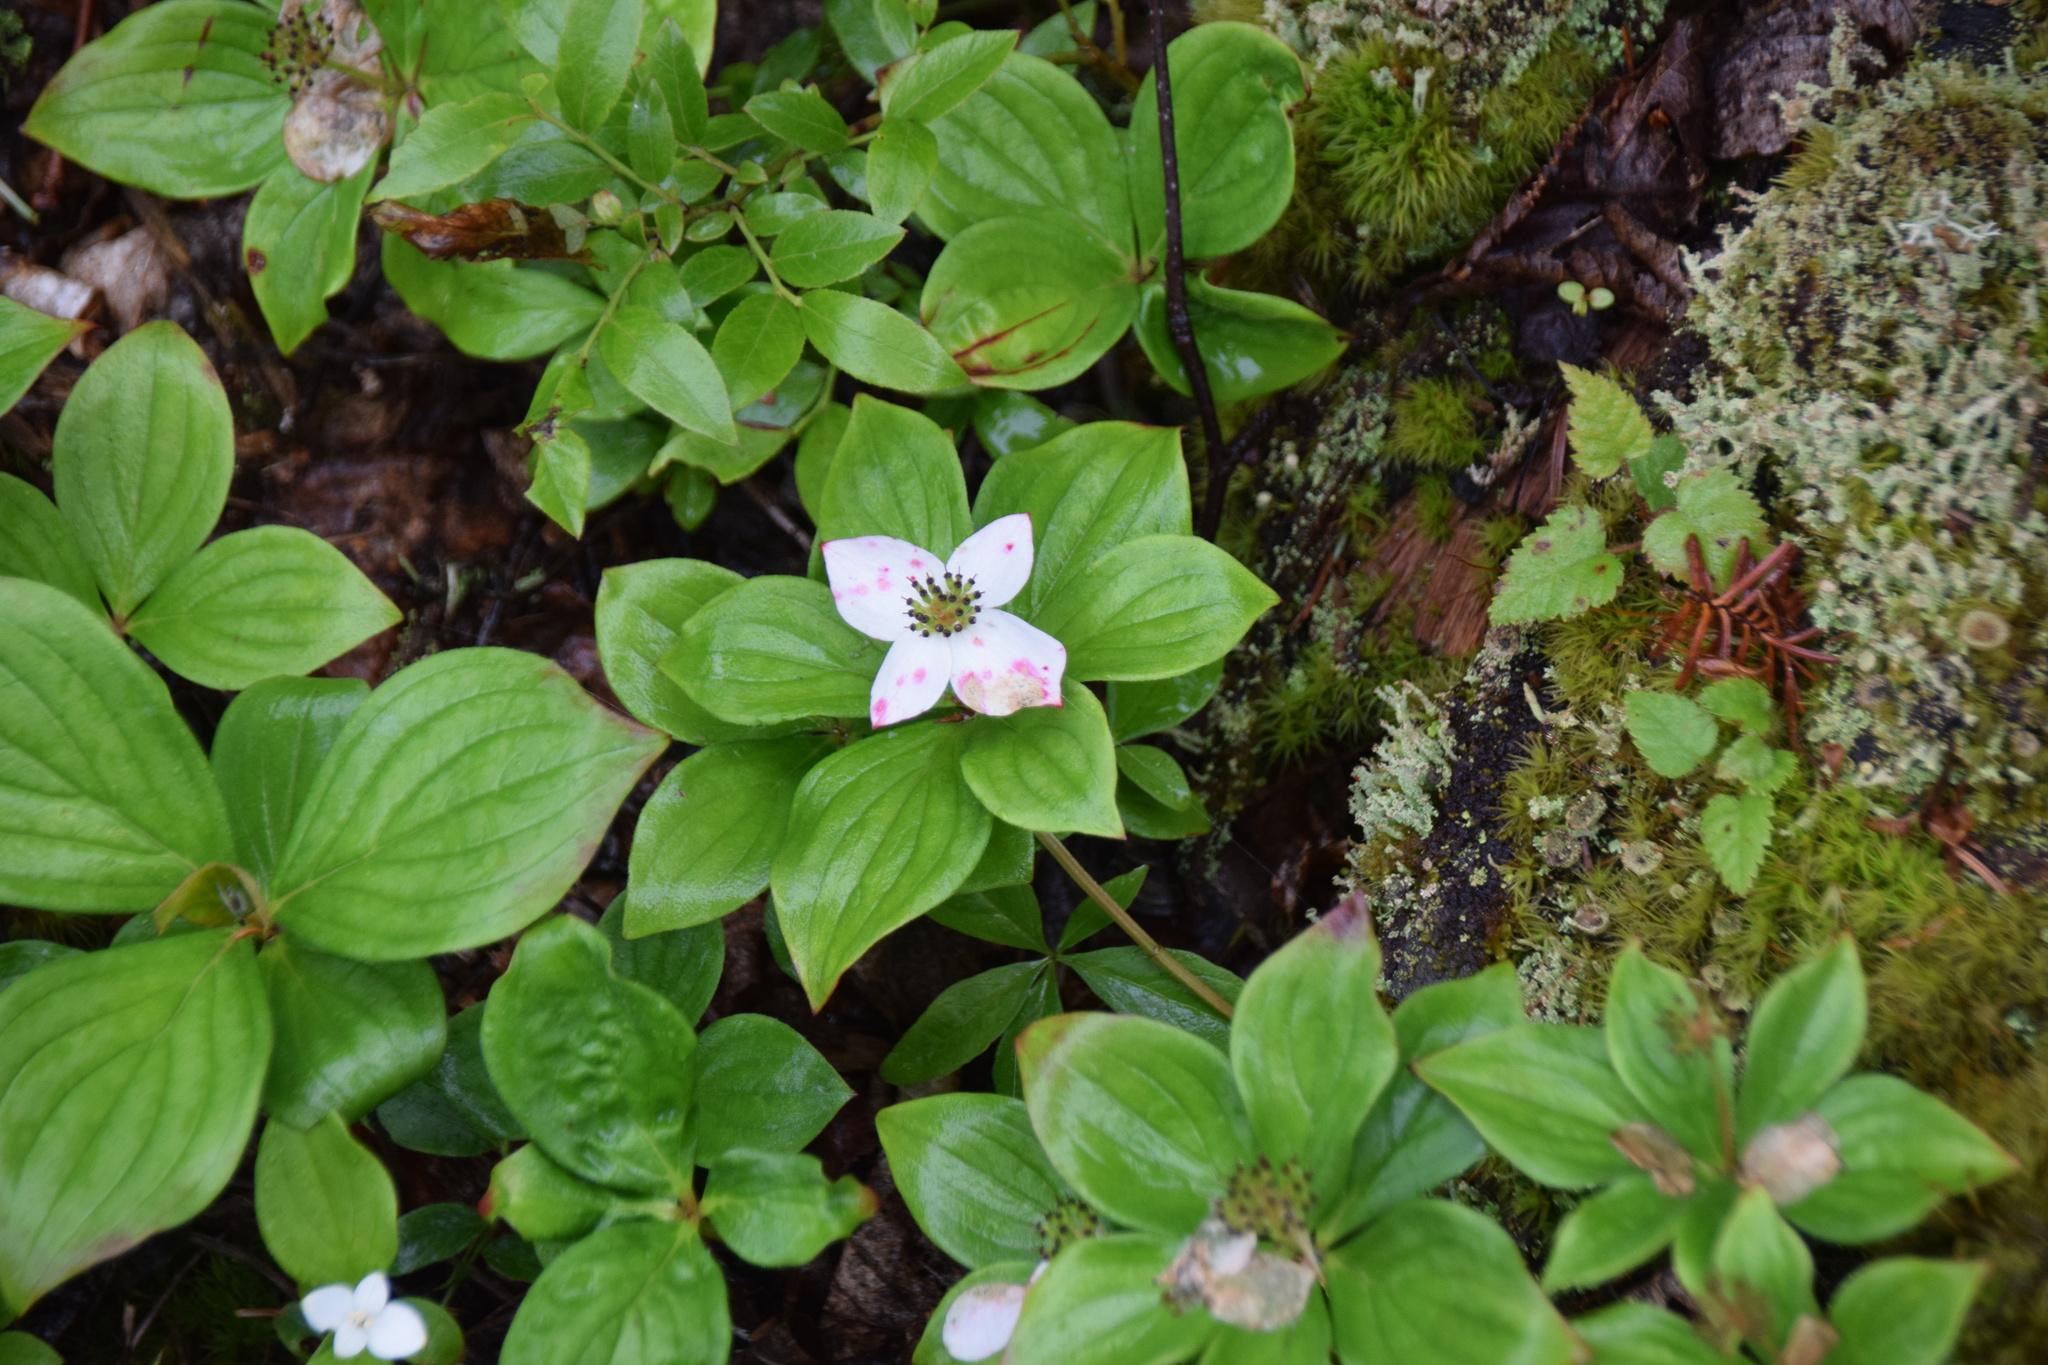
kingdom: Plantae
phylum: Tracheophyta
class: Magnoliopsida
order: Cornales
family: Cornaceae
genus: Cornus
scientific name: Cornus canadensis
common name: Creeping dogwood
